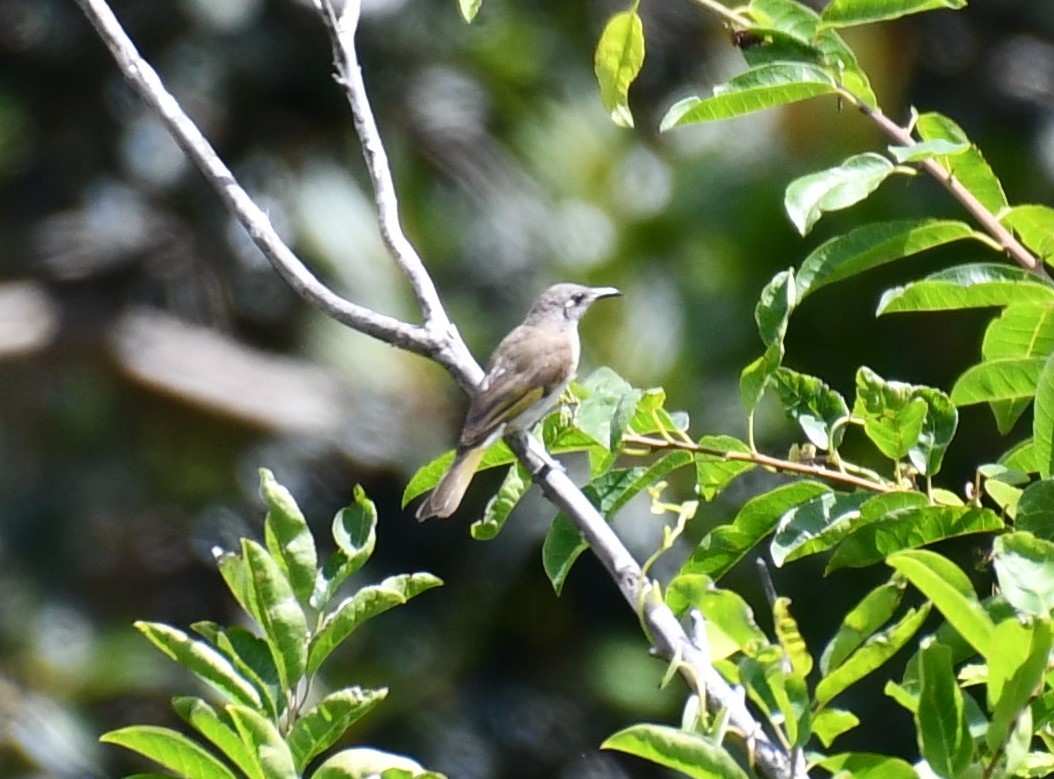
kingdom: Animalia
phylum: Chordata
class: Aves
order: Passeriformes
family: Meliphagidae
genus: Lichmera
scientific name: Lichmera indistincta
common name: Brown honeyeater
